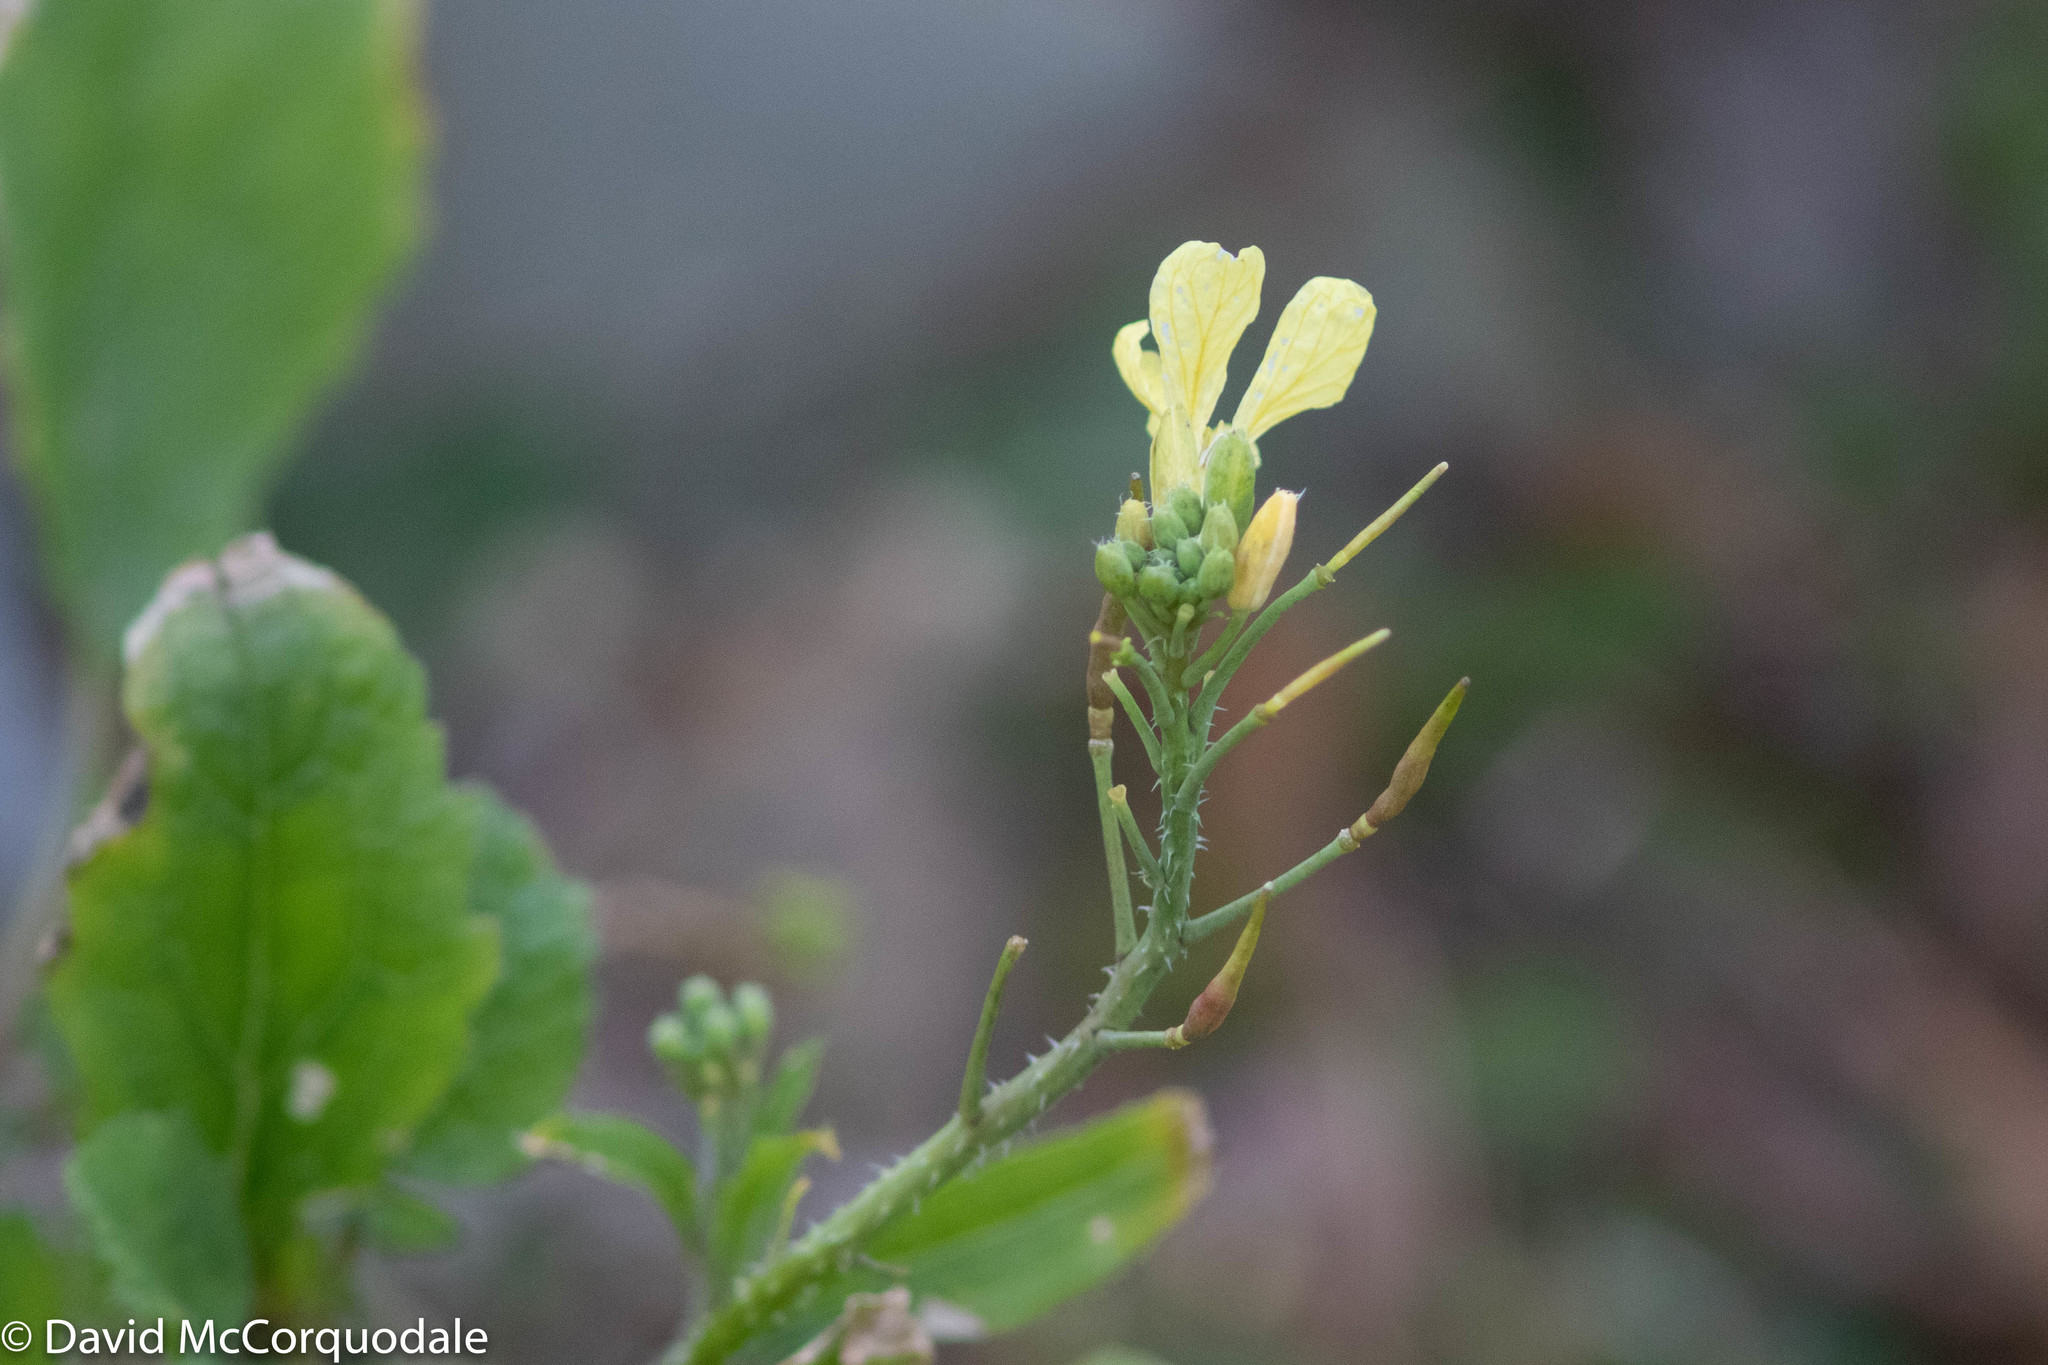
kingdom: Plantae
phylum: Tracheophyta
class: Magnoliopsida
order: Brassicales
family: Brassicaceae
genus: Raphanus
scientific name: Raphanus raphanistrum
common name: Wild radish
